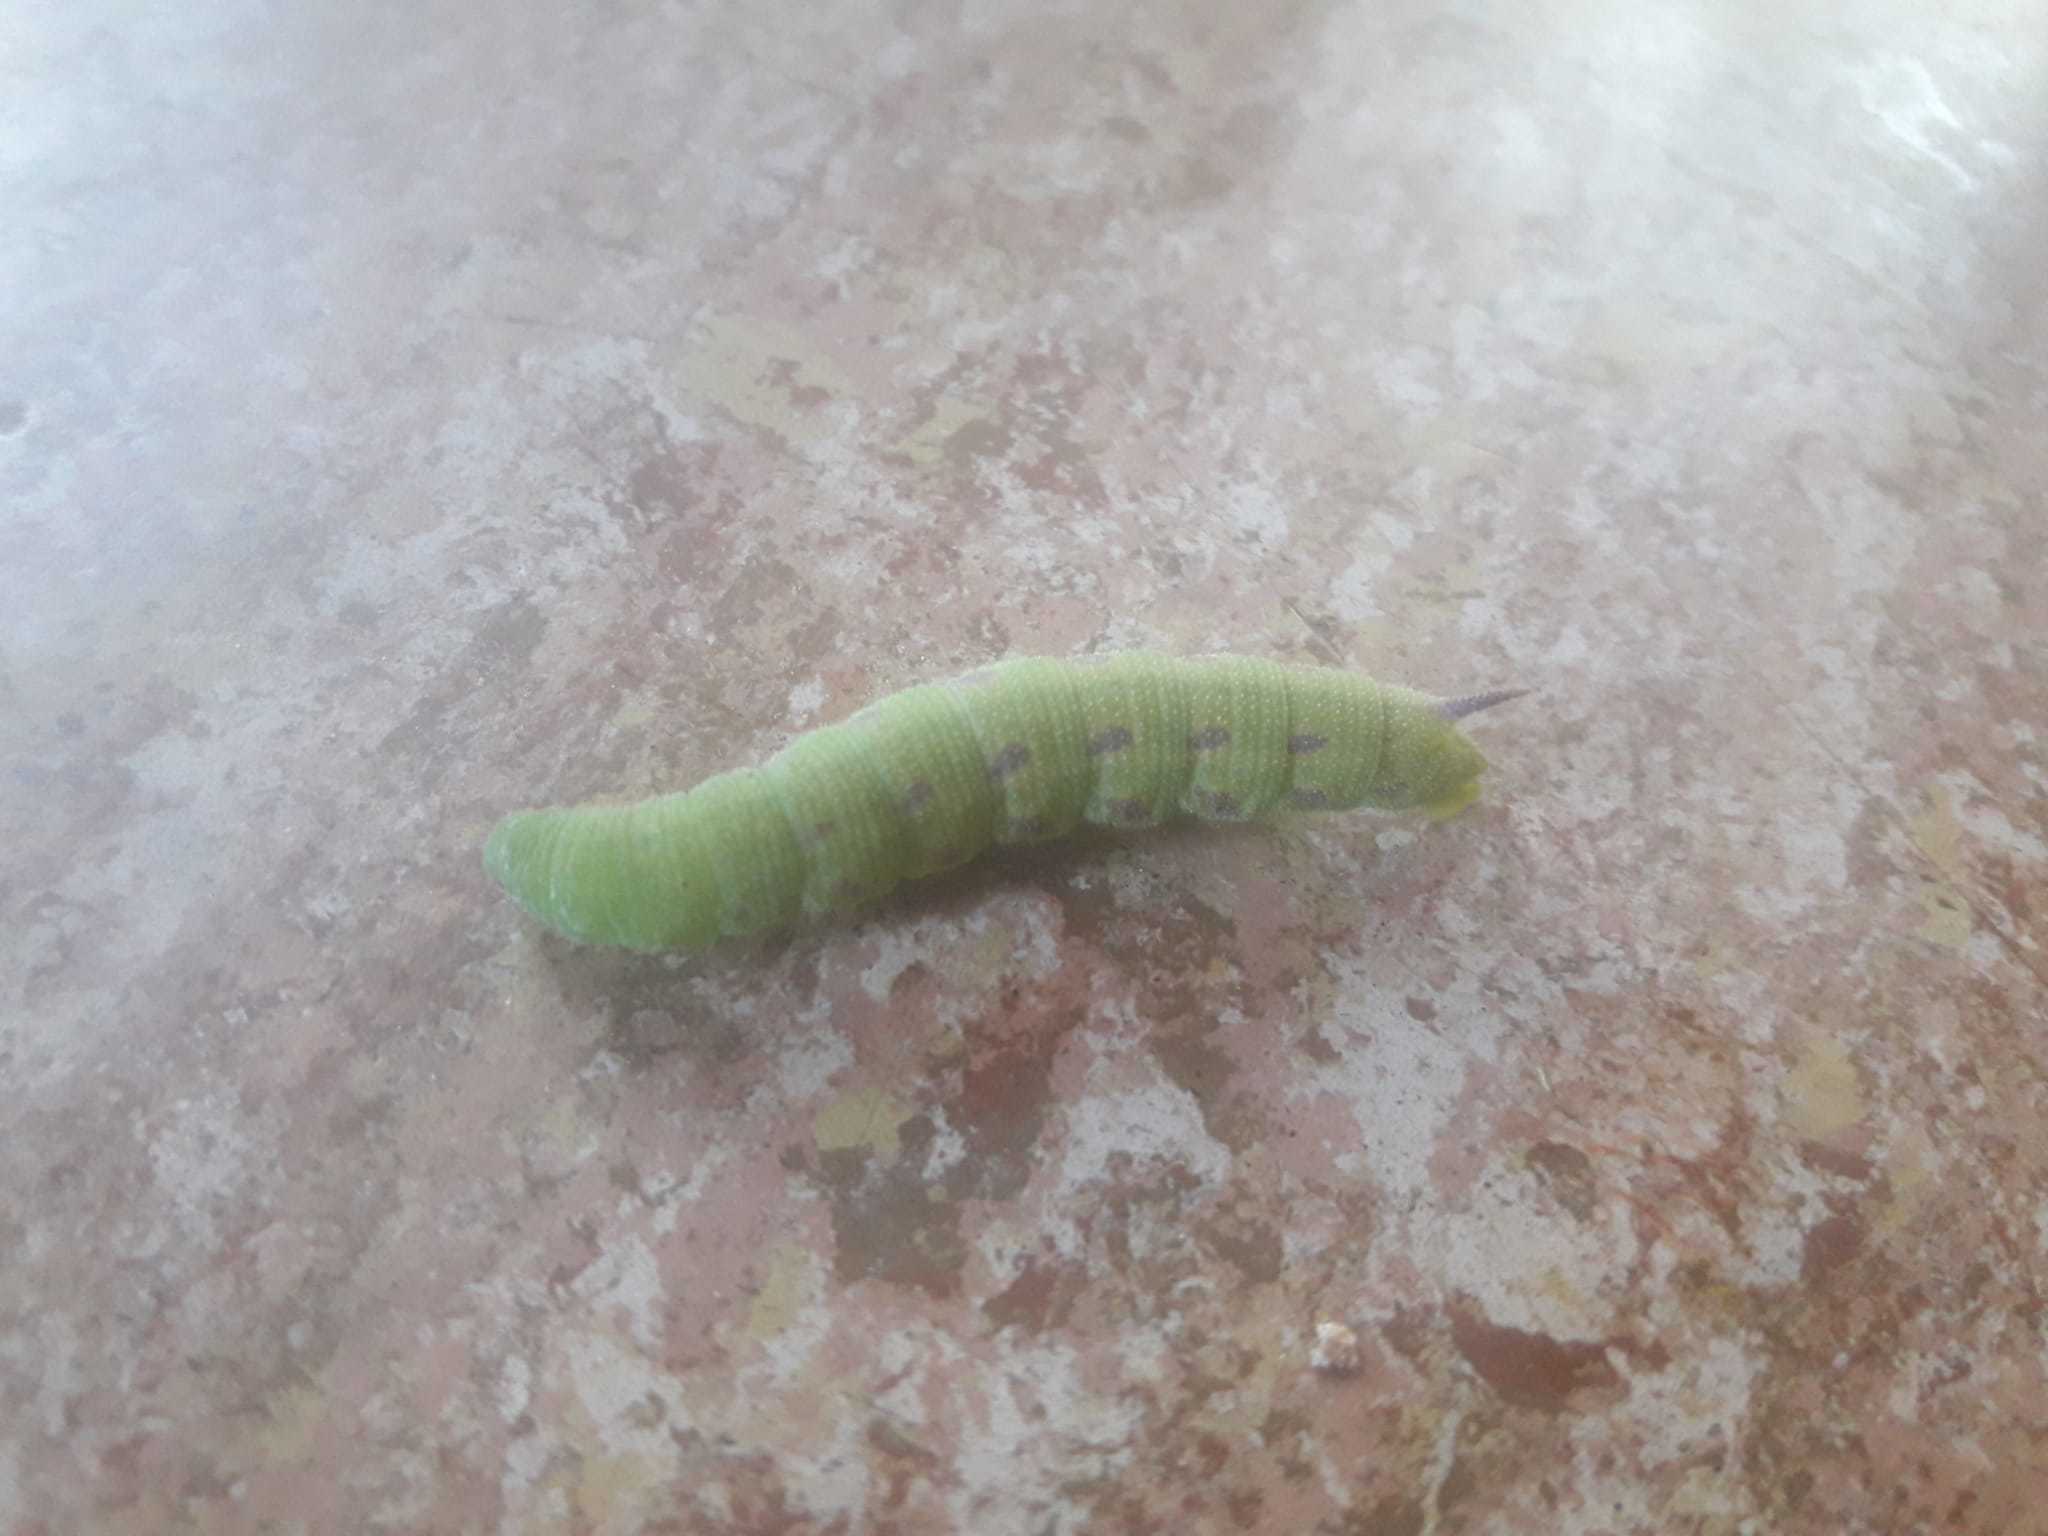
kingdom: Animalia
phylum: Arthropoda
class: Insecta
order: Lepidoptera
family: Sphingidae
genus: Hemaris
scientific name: Hemaris tityus
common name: Narrow-bordered bee hawk-moth
